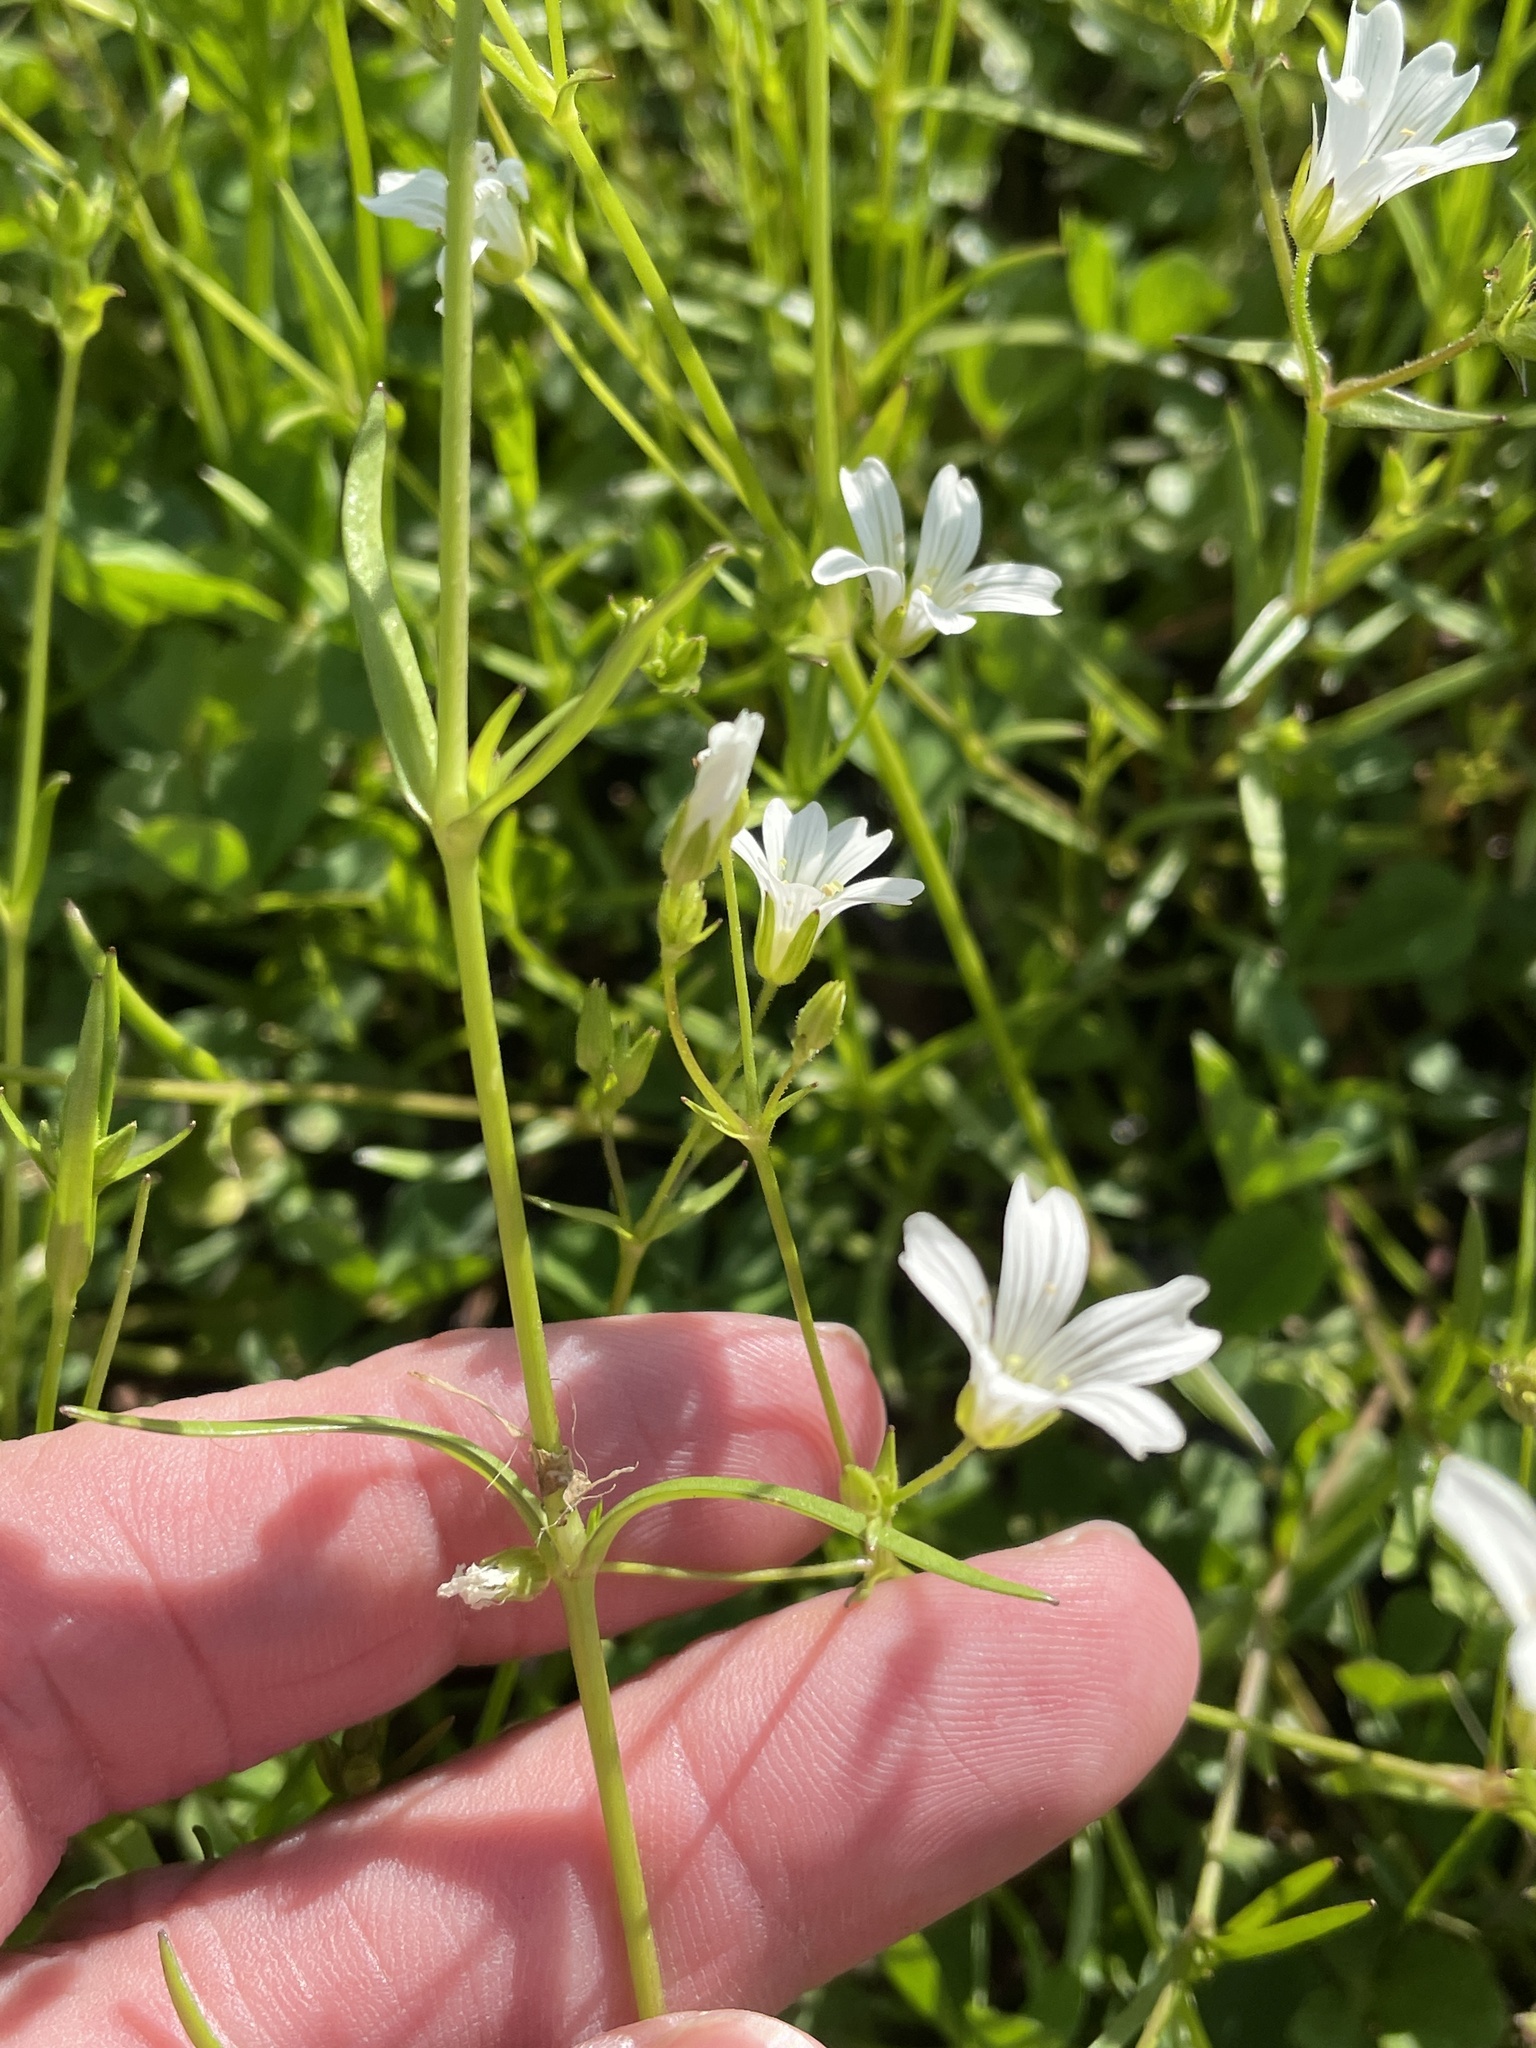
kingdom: Plantae
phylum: Tracheophyta
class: Magnoliopsida
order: Caryophyllales
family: Caryophyllaceae
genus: Mononeuria
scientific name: Mononeuria patula
